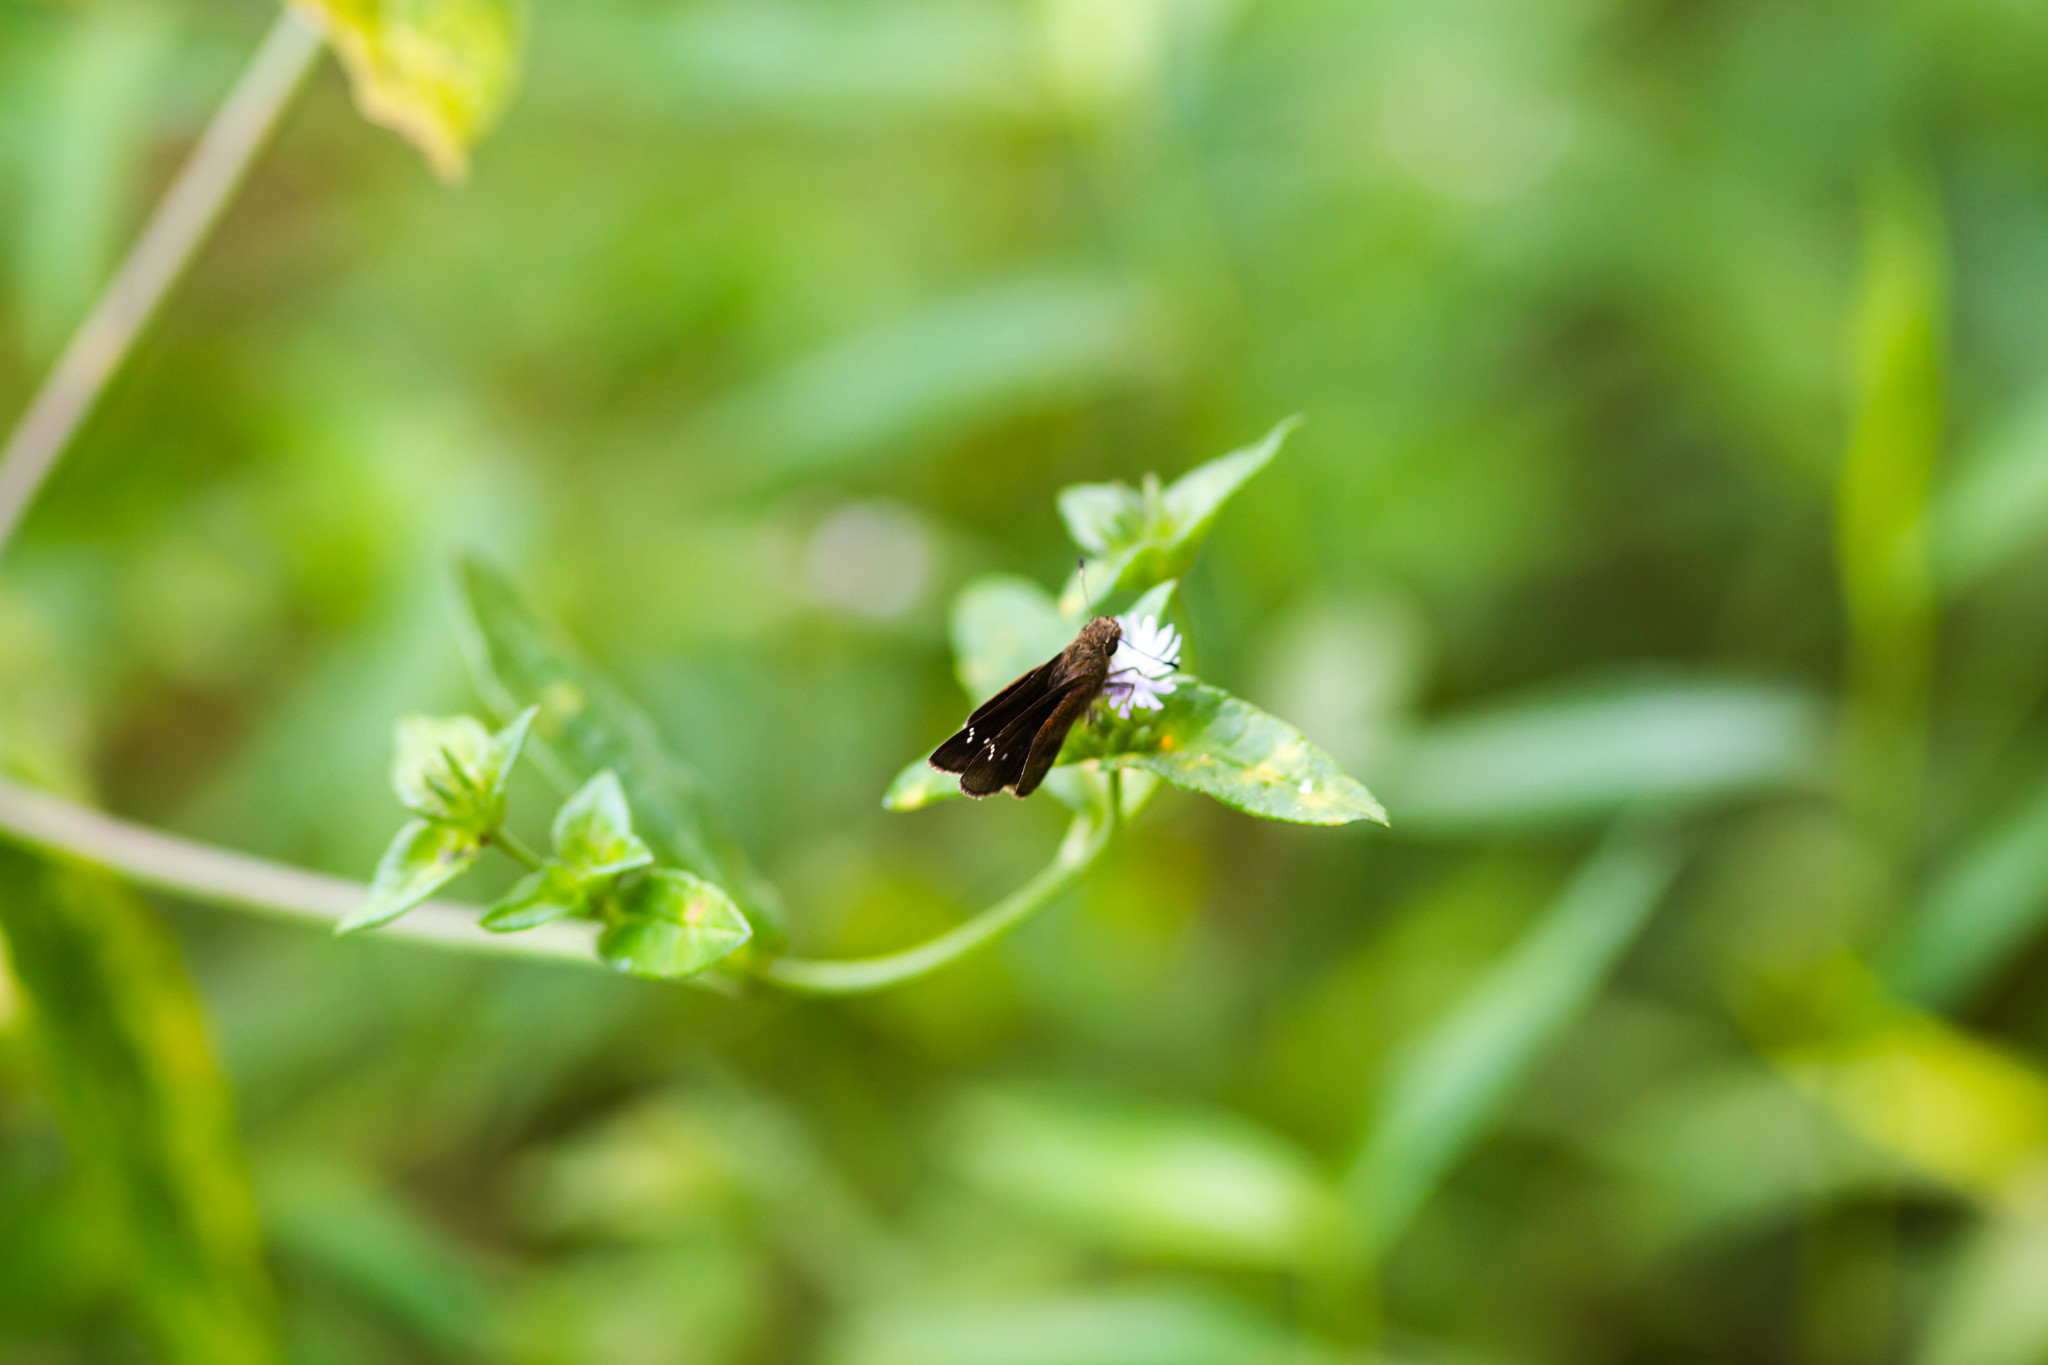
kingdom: Animalia
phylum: Arthropoda
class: Insecta
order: Lepidoptera
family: Hesperiidae
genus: Lerema
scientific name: Lerema accius
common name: Clouded skipper
